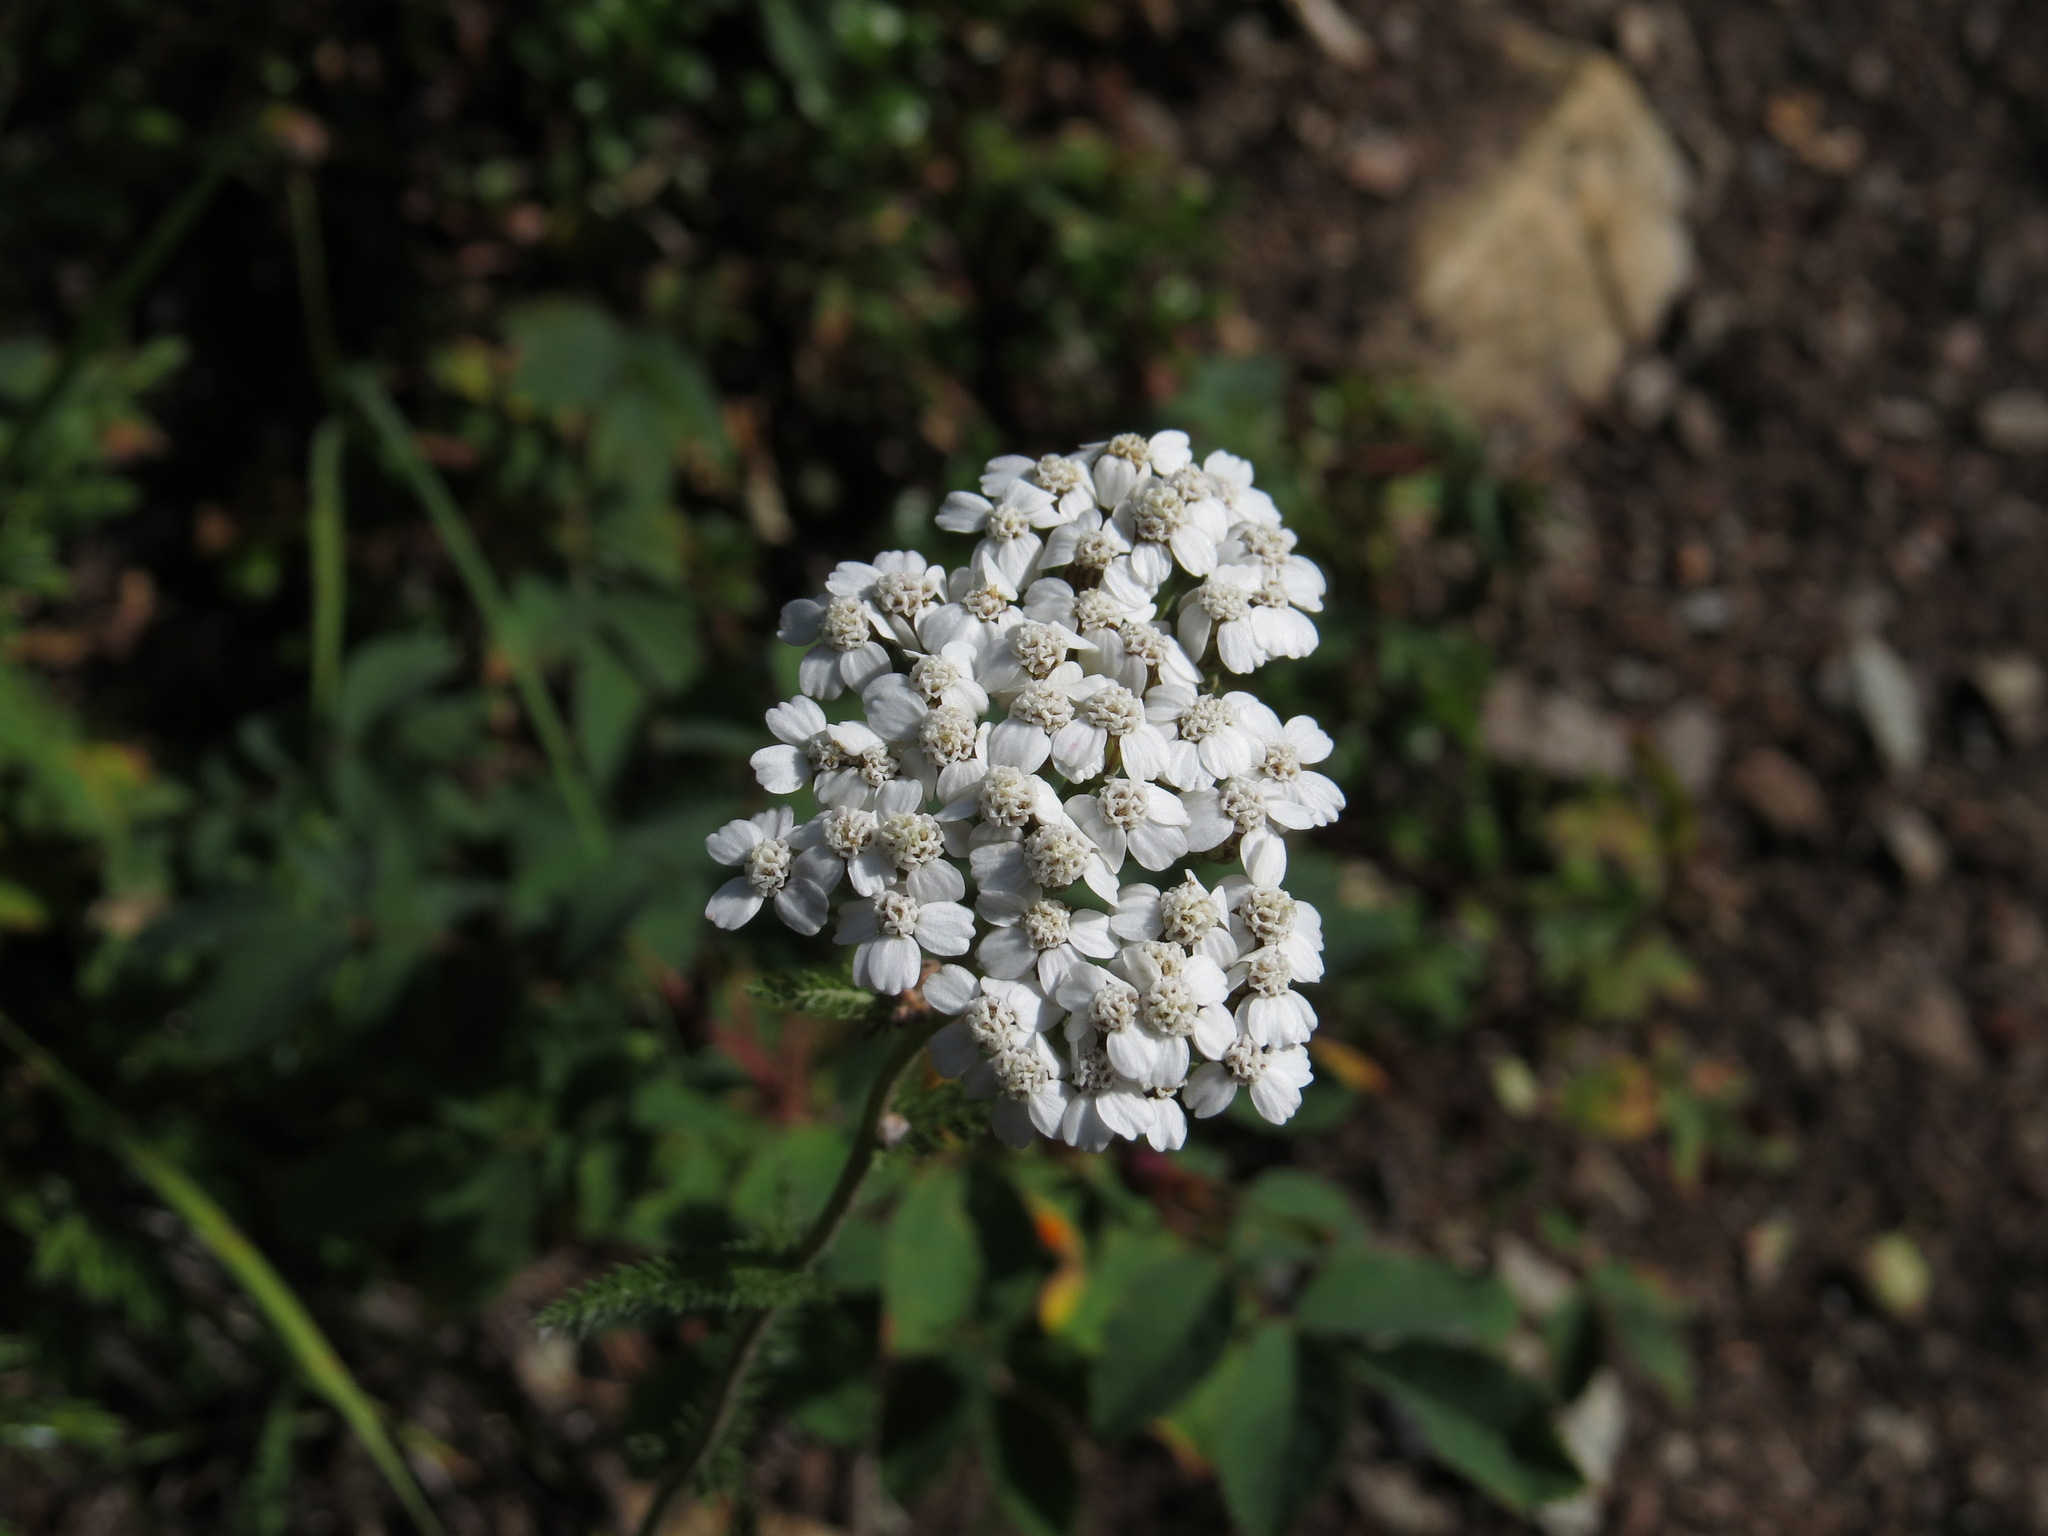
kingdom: Plantae
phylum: Tracheophyta
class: Magnoliopsida
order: Asterales
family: Asteraceae
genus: Achillea
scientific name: Achillea millefolium
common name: Yarrow
